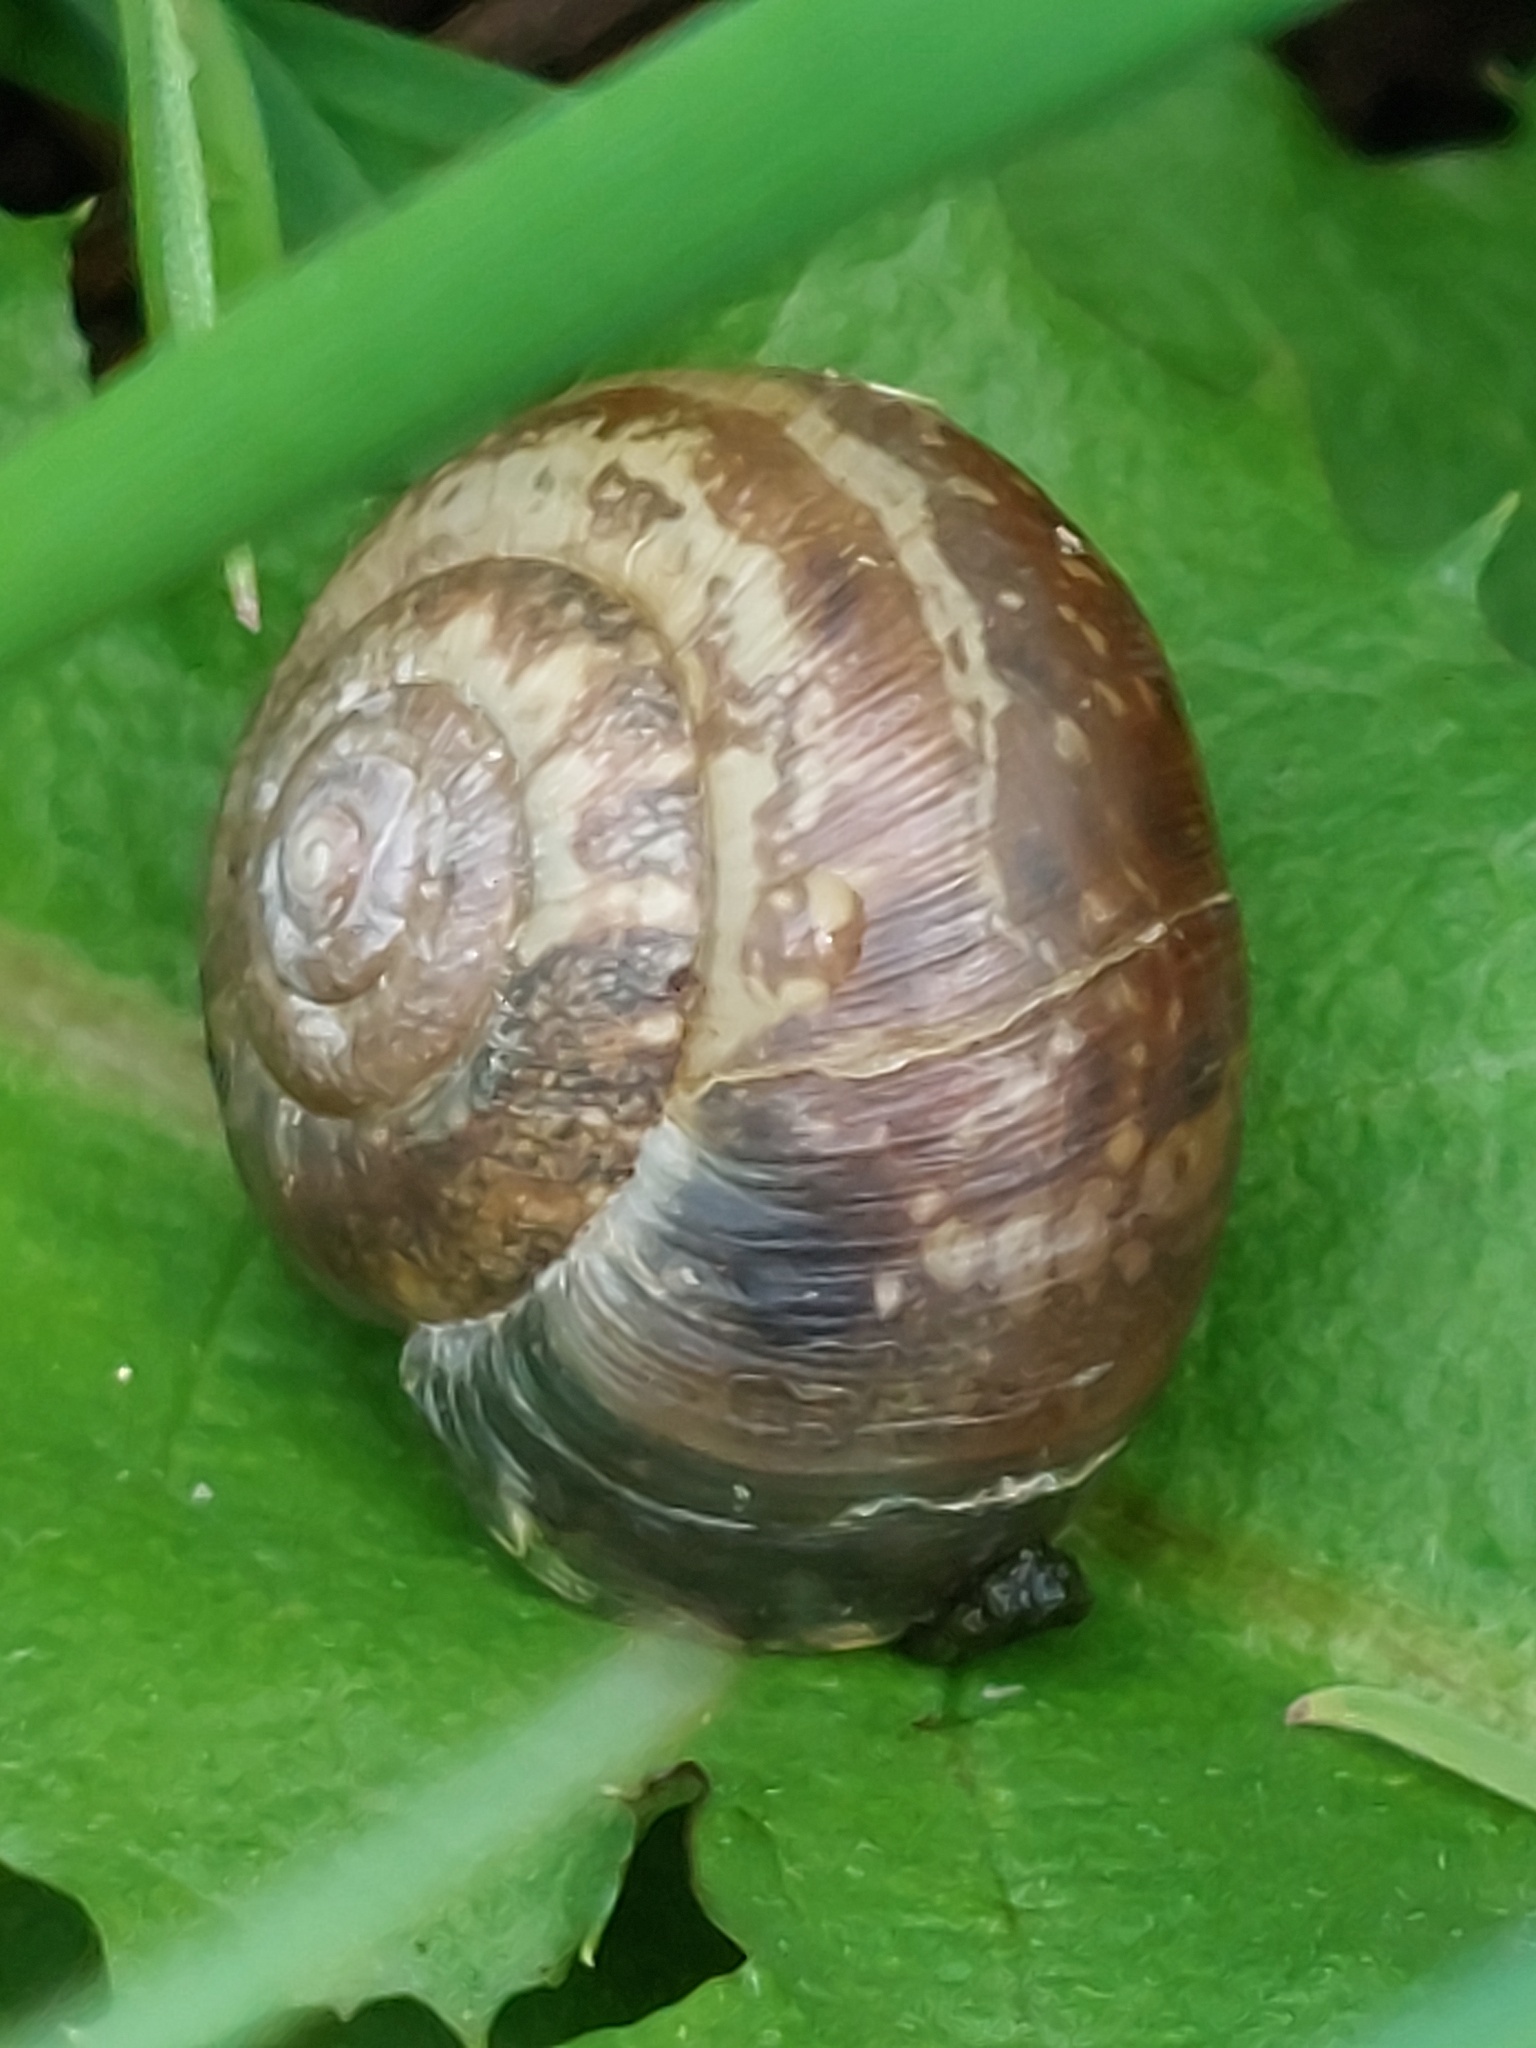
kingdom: Animalia
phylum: Mollusca
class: Gastropoda
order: Stylommatophora
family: Hygromiidae
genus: Monacha
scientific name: Monacha cantiana
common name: Kentish snail
